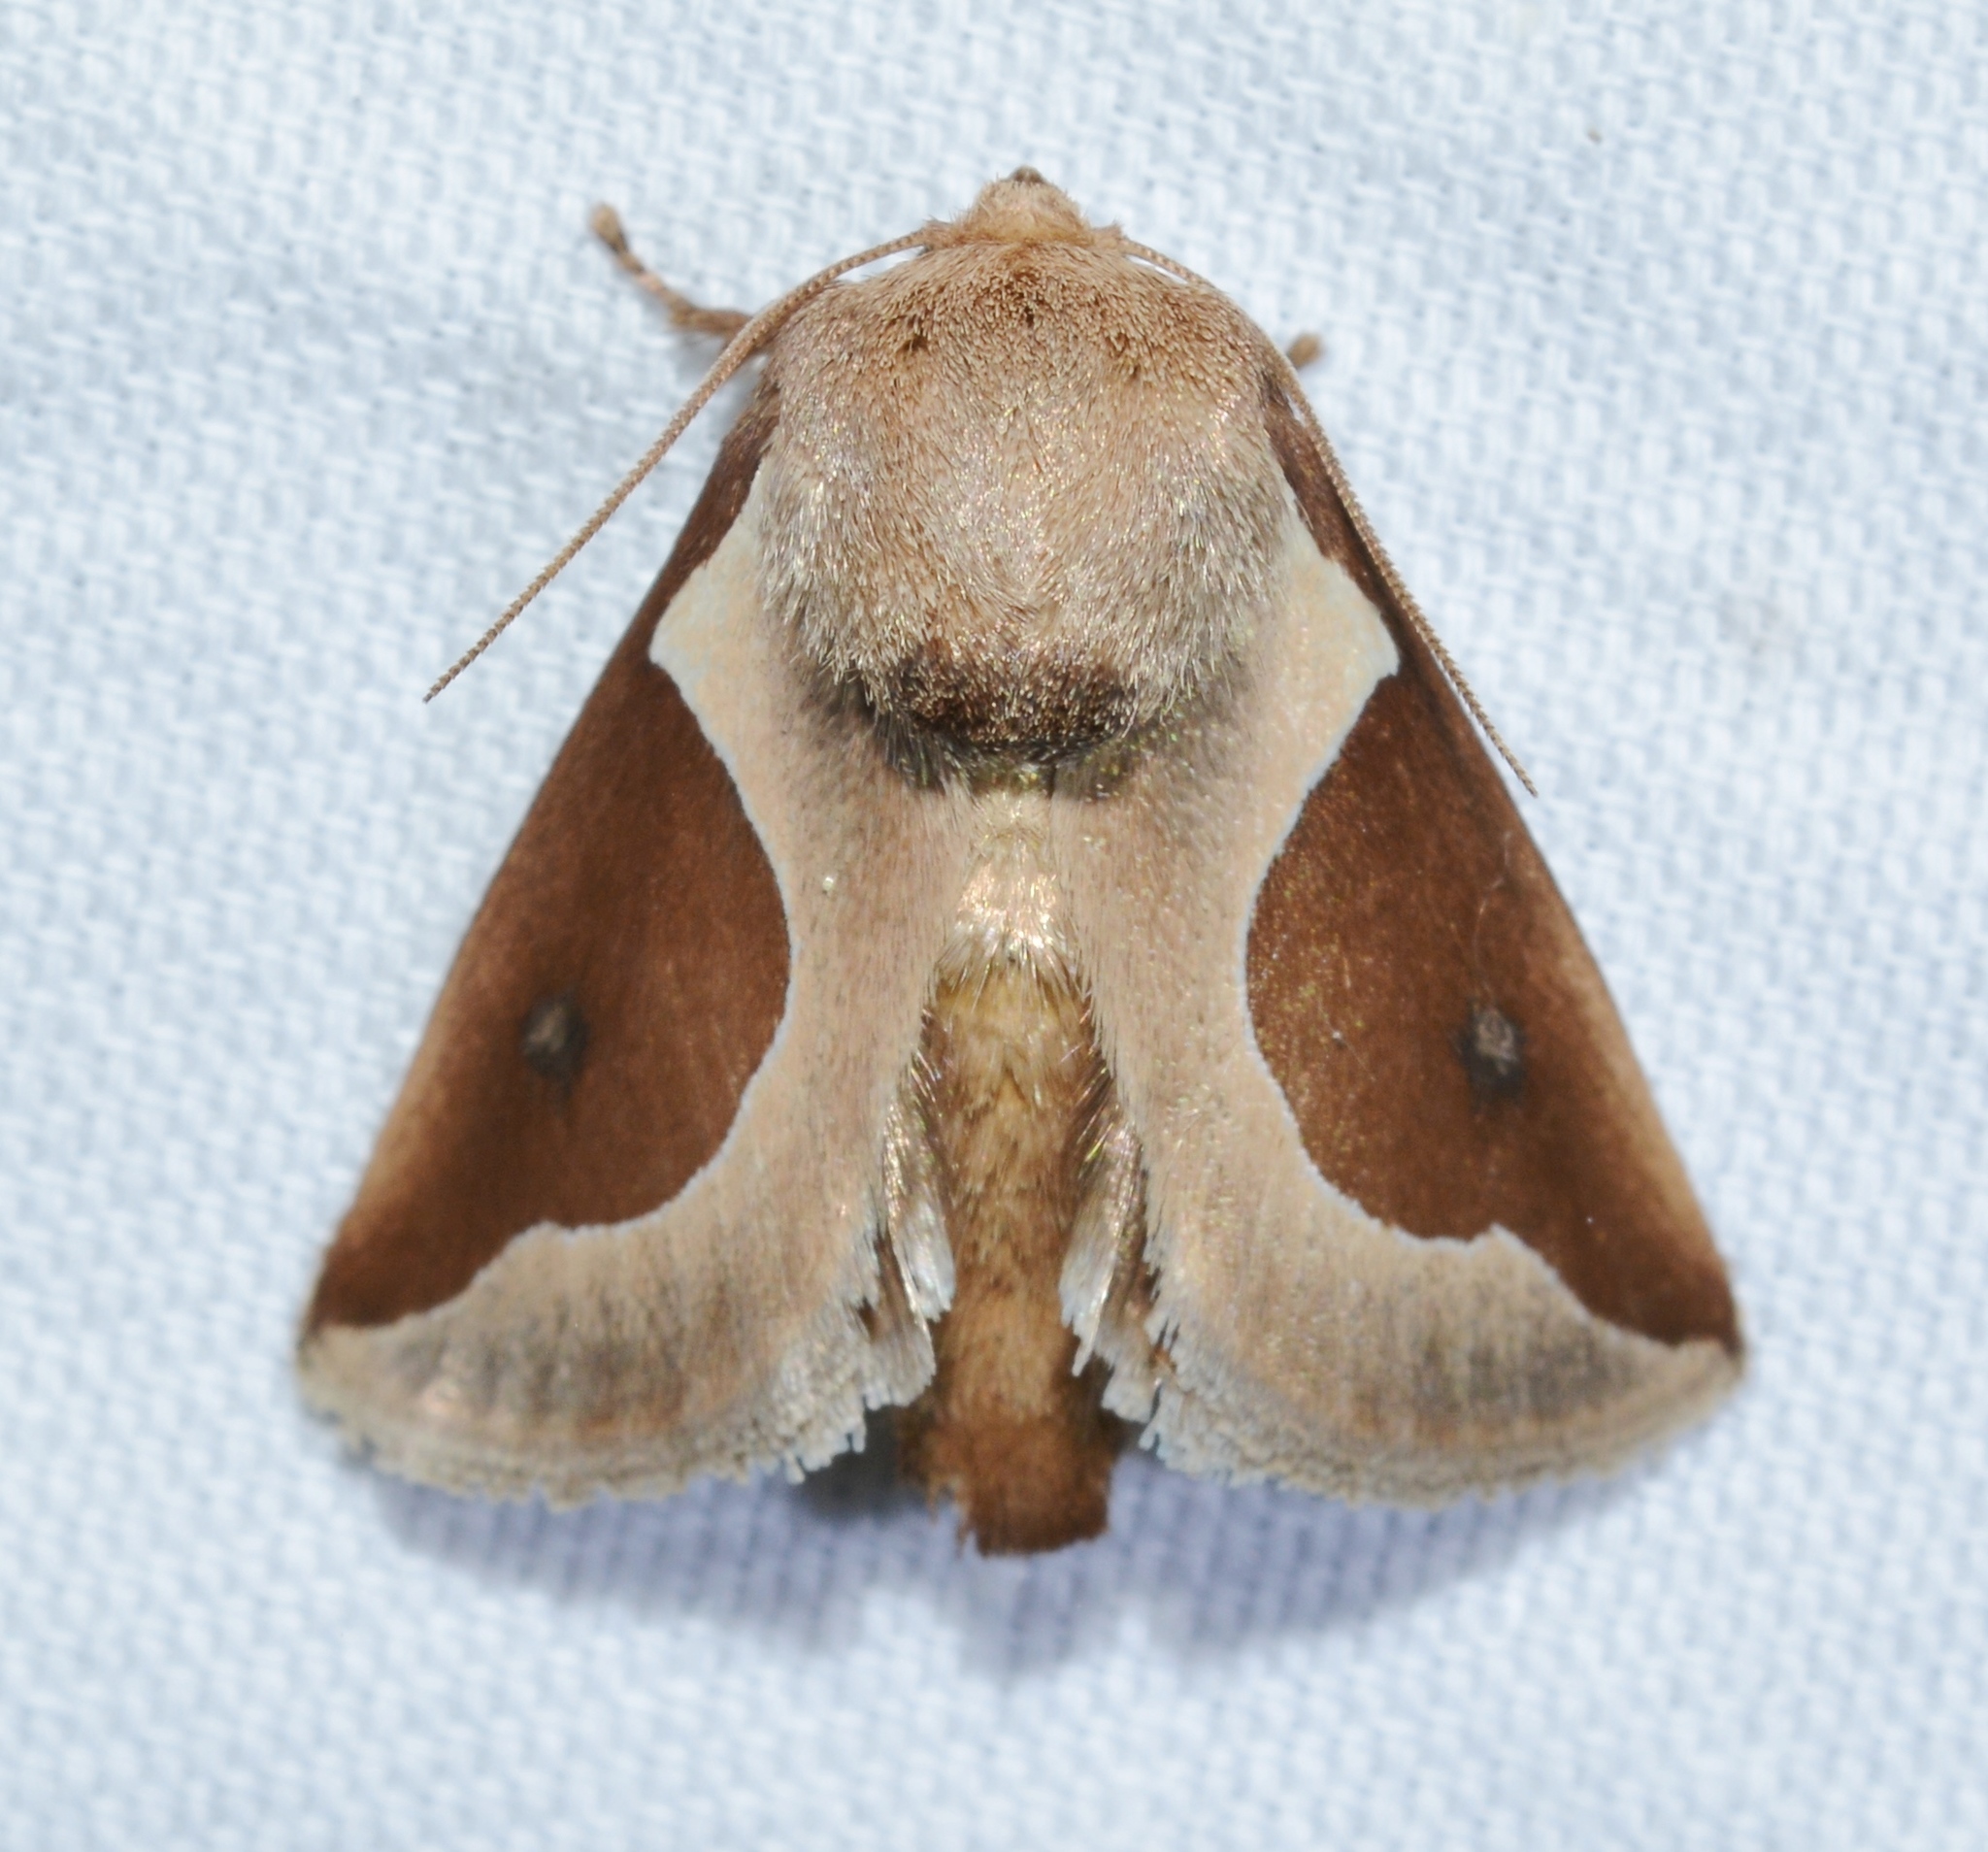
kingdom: Animalia
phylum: Arthropoda
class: Insecta
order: Lepidoptera
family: Limacodidae
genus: Prolimacodes
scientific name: Prolimacodes badia
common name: Skiff moth
